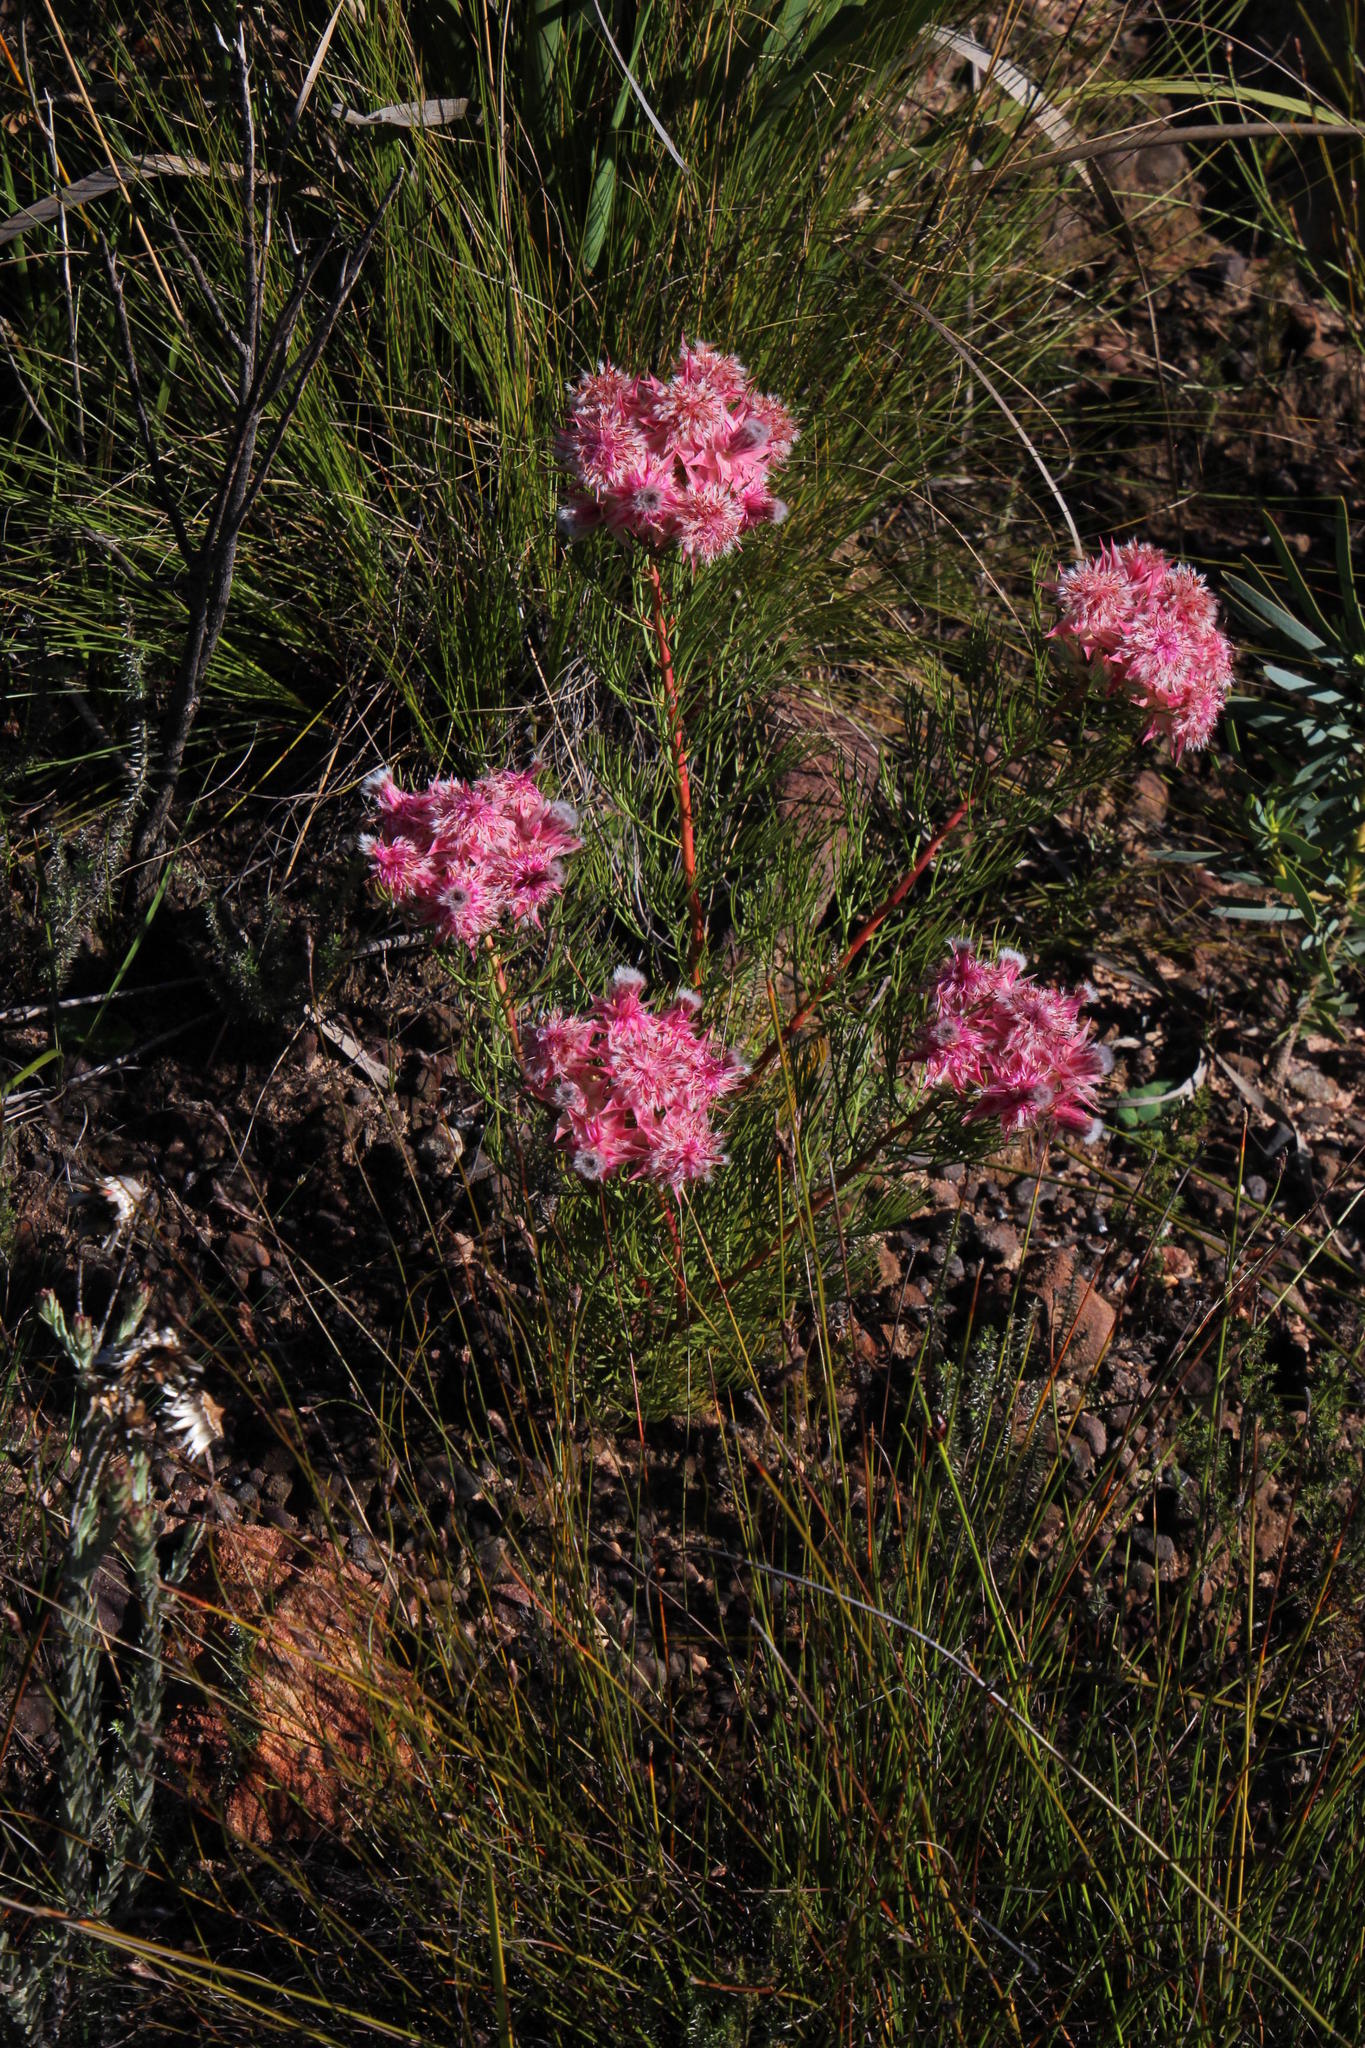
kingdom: Plantae
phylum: Tracheophyta
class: Magnoliopsida
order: Proteales
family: Proteaceae
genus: Serruria
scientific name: Serruria rosea
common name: Rose spiderhead
